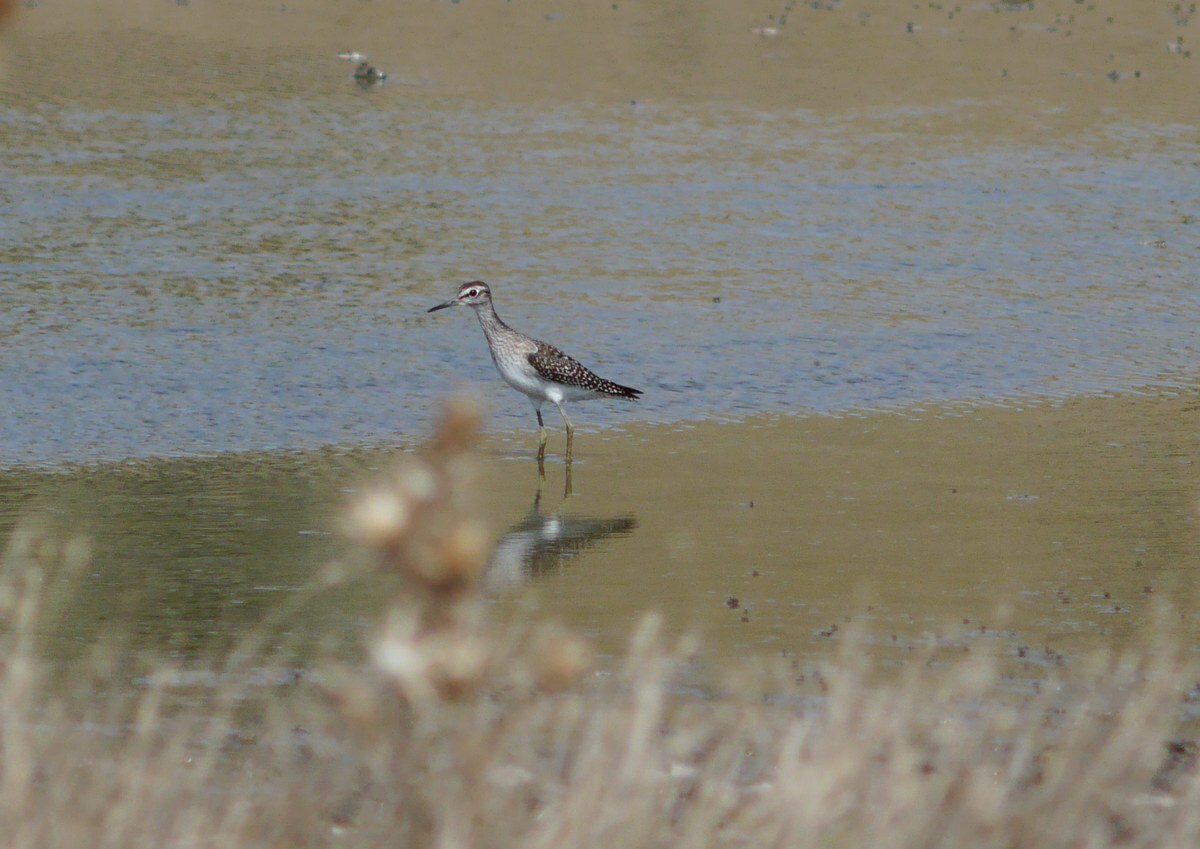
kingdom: Animalia
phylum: Chordata
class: Aves
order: Charadriiformes
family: Scolopacidae
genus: Tringa
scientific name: Tringa glareola
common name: Wood sandpiper
